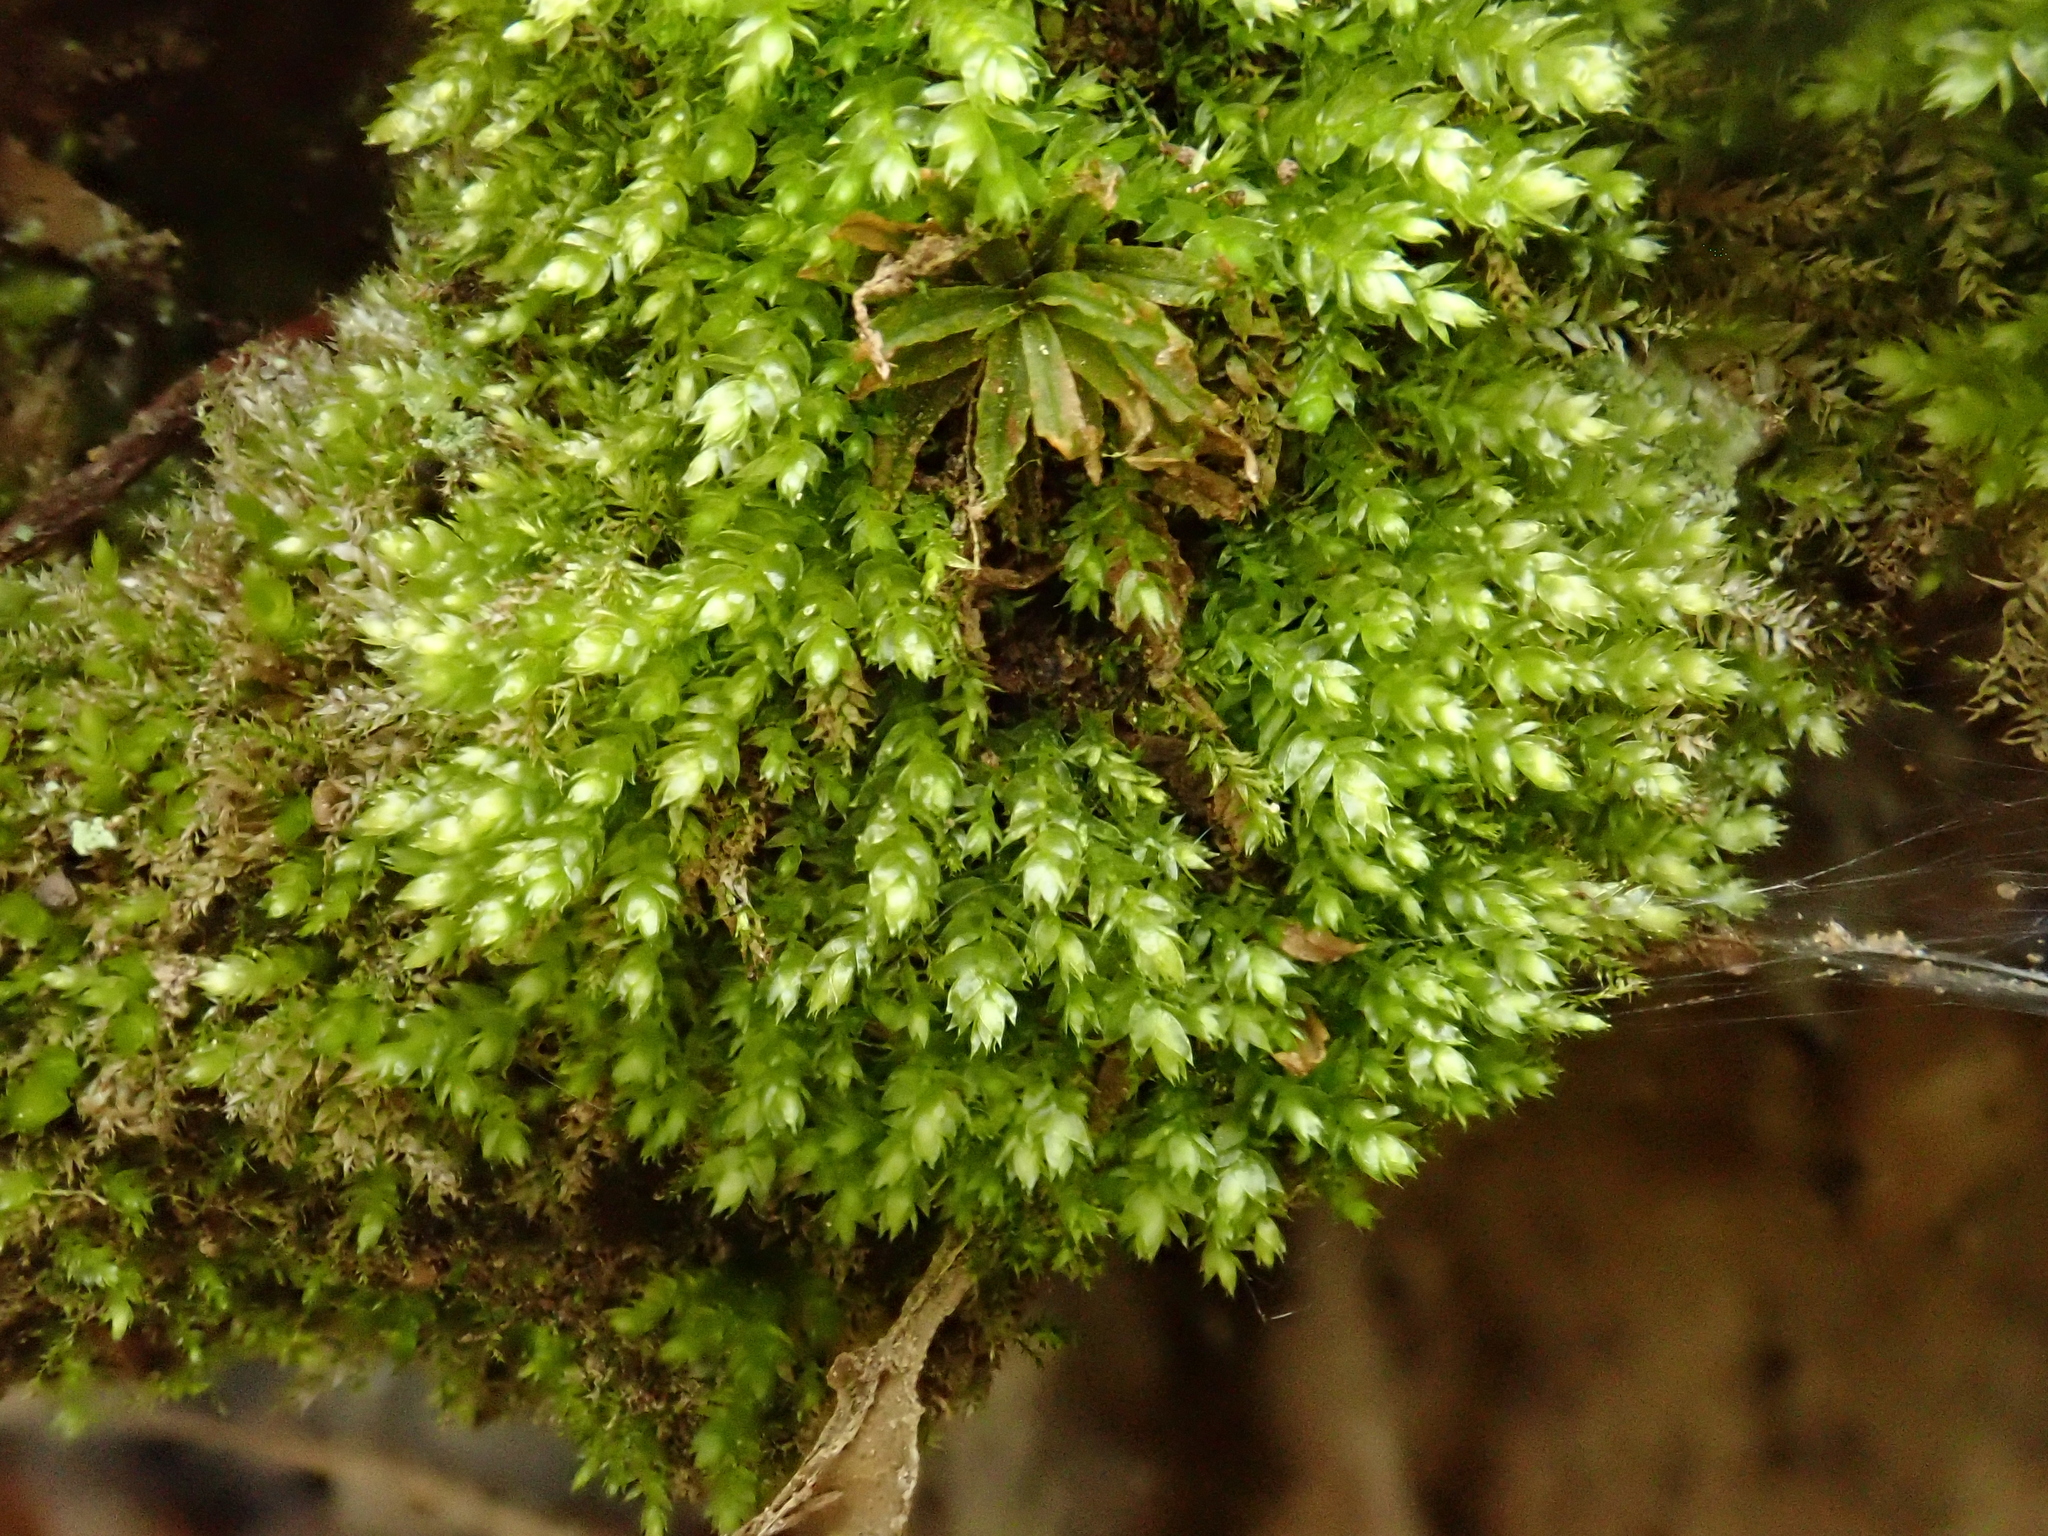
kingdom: Plantae
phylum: Bryophyta
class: Bryopsida
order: Hypnales
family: Plagiotheciaceae
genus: Plagiothecium
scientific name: Plagiothecium cavifolium
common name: Round silk moss
